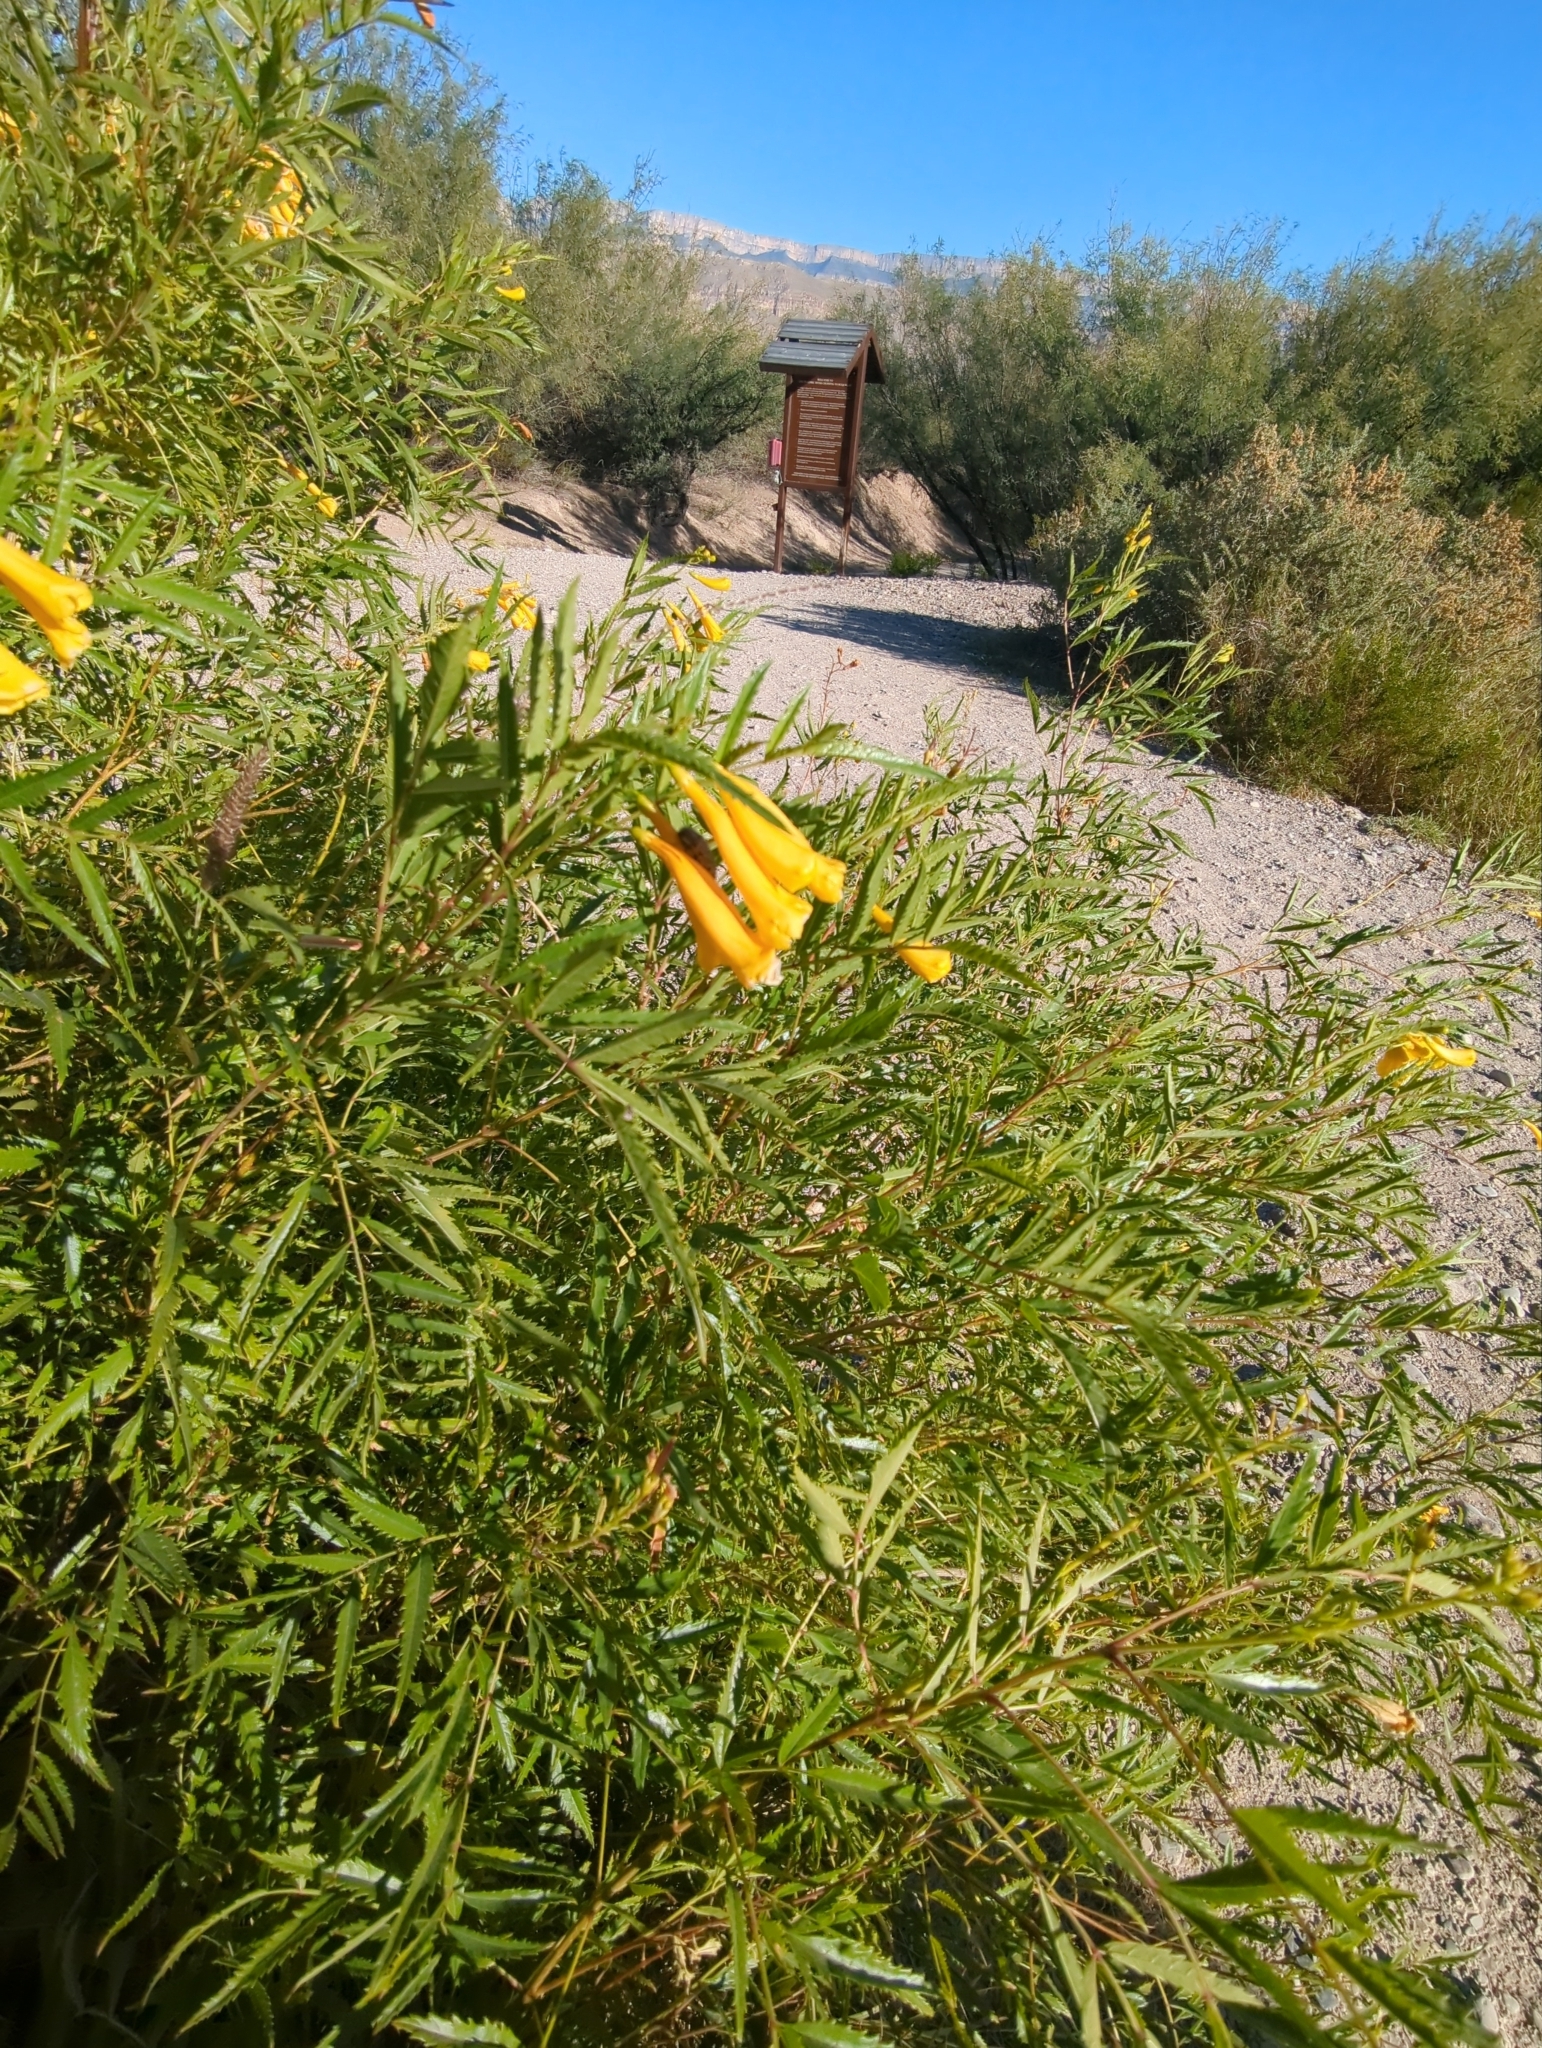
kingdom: Plantae
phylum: Tracheophyta
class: Magnoliopsida
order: Lamiales
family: Bignoniaceae
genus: Tecoma
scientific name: Tecoma stans
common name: Yellow trumpetbush
